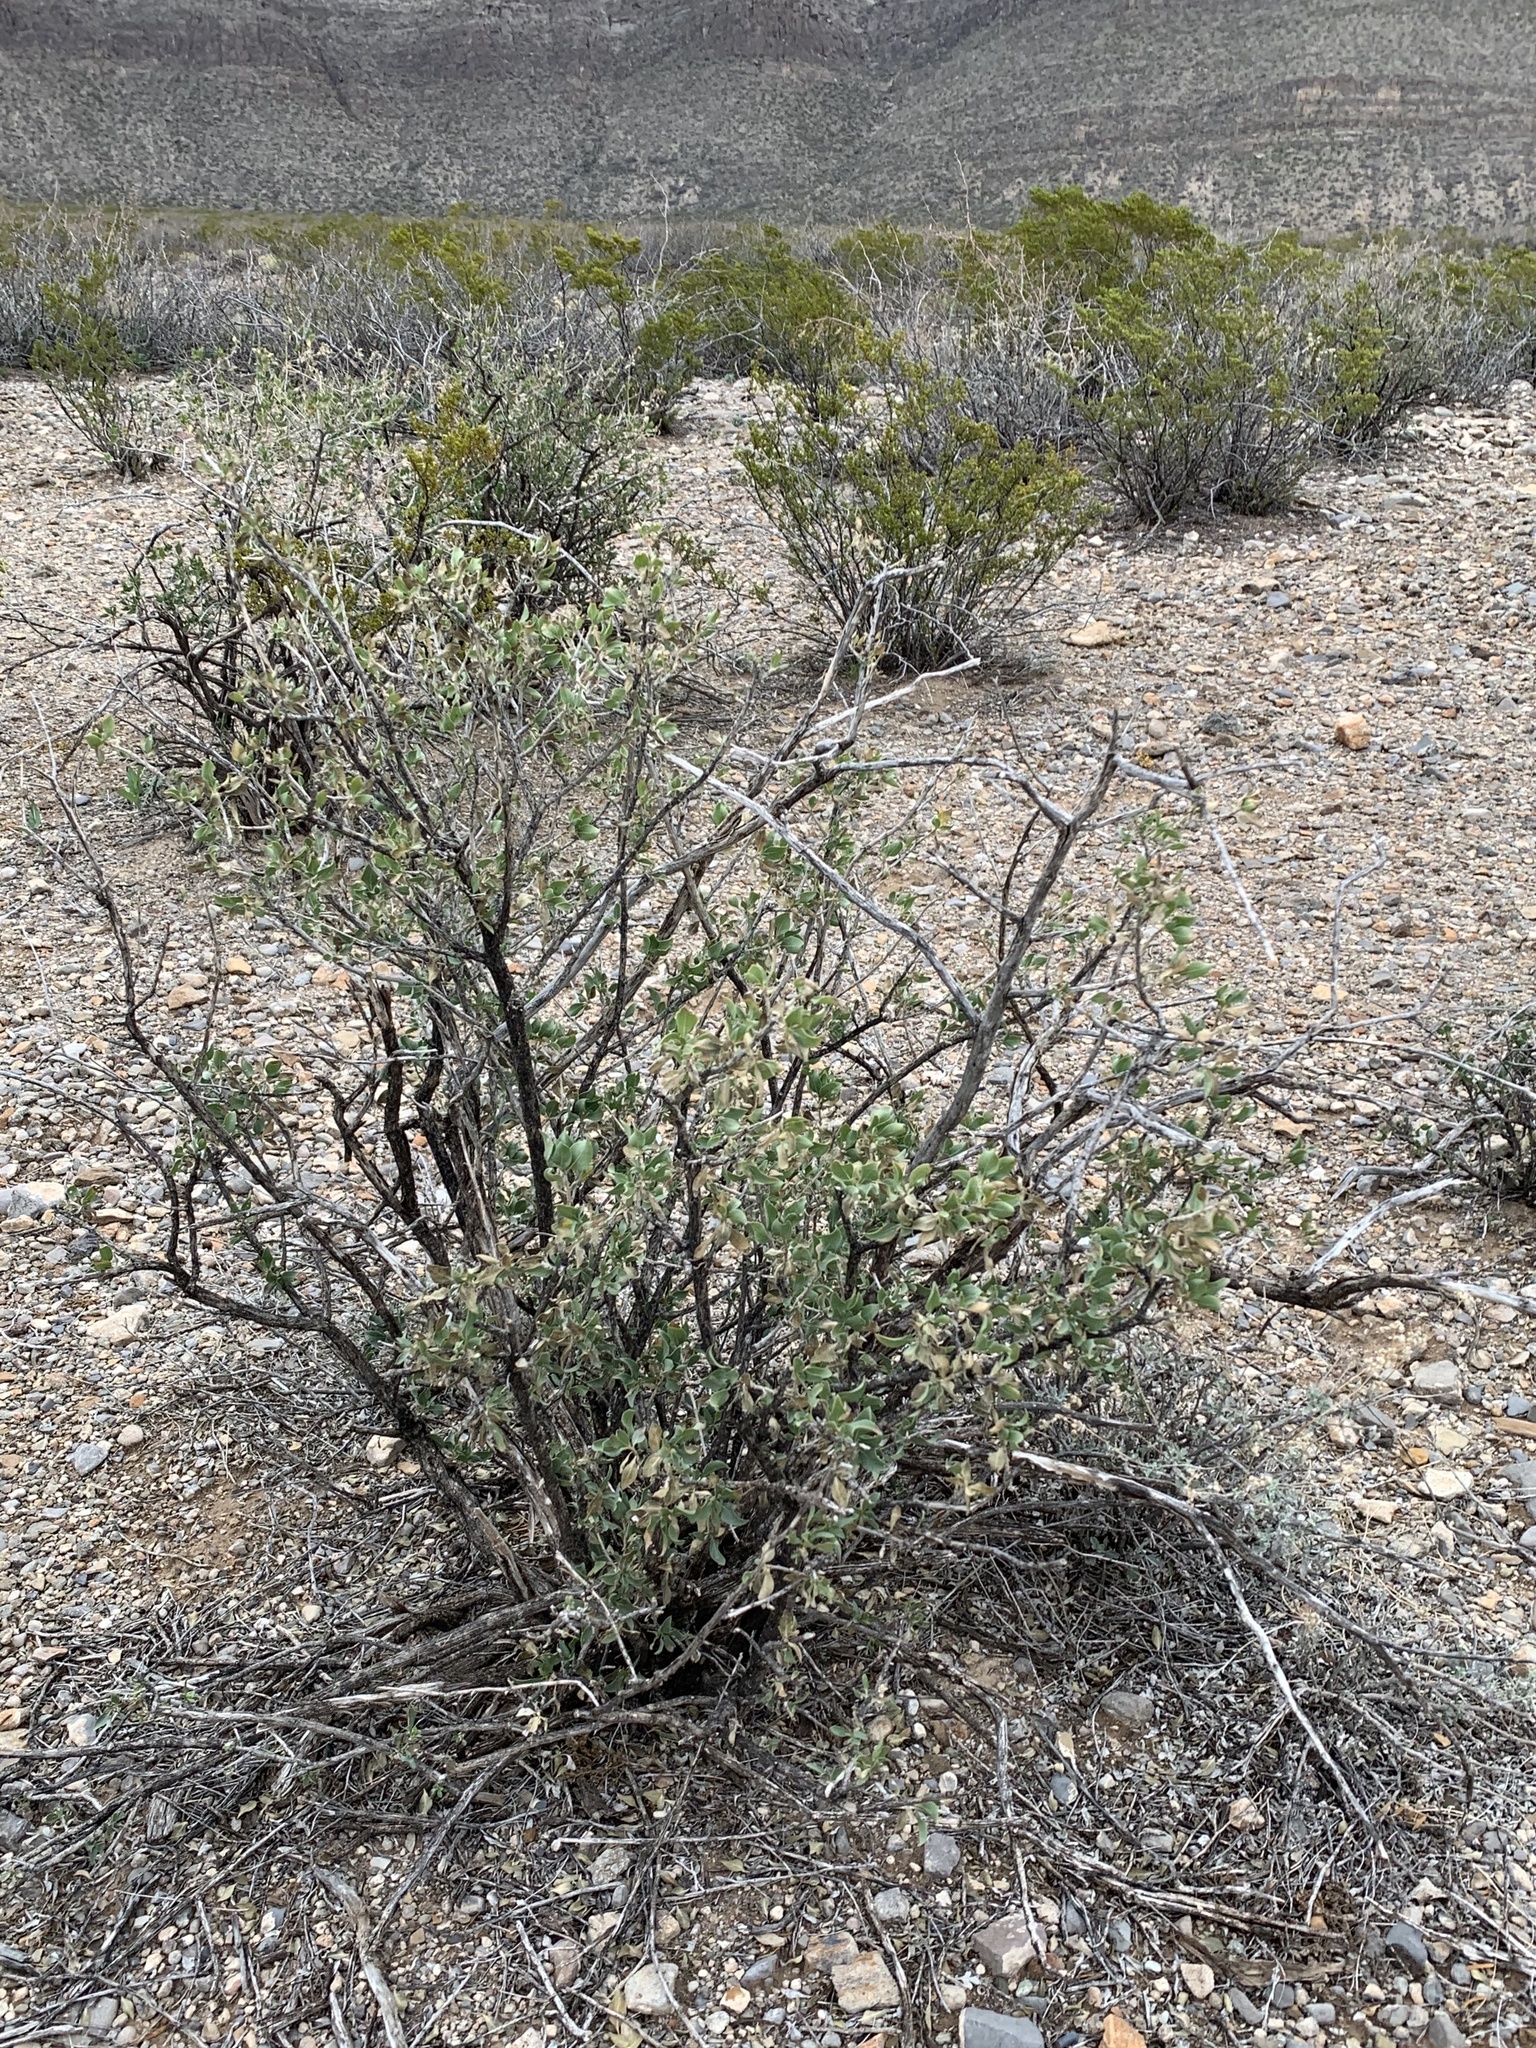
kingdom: Plantae
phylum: Tracheophyta
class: Magnoliopsida
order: Asterales
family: Asteraceae
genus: Flourensia
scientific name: Flourensia cernua
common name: Varnishbush
